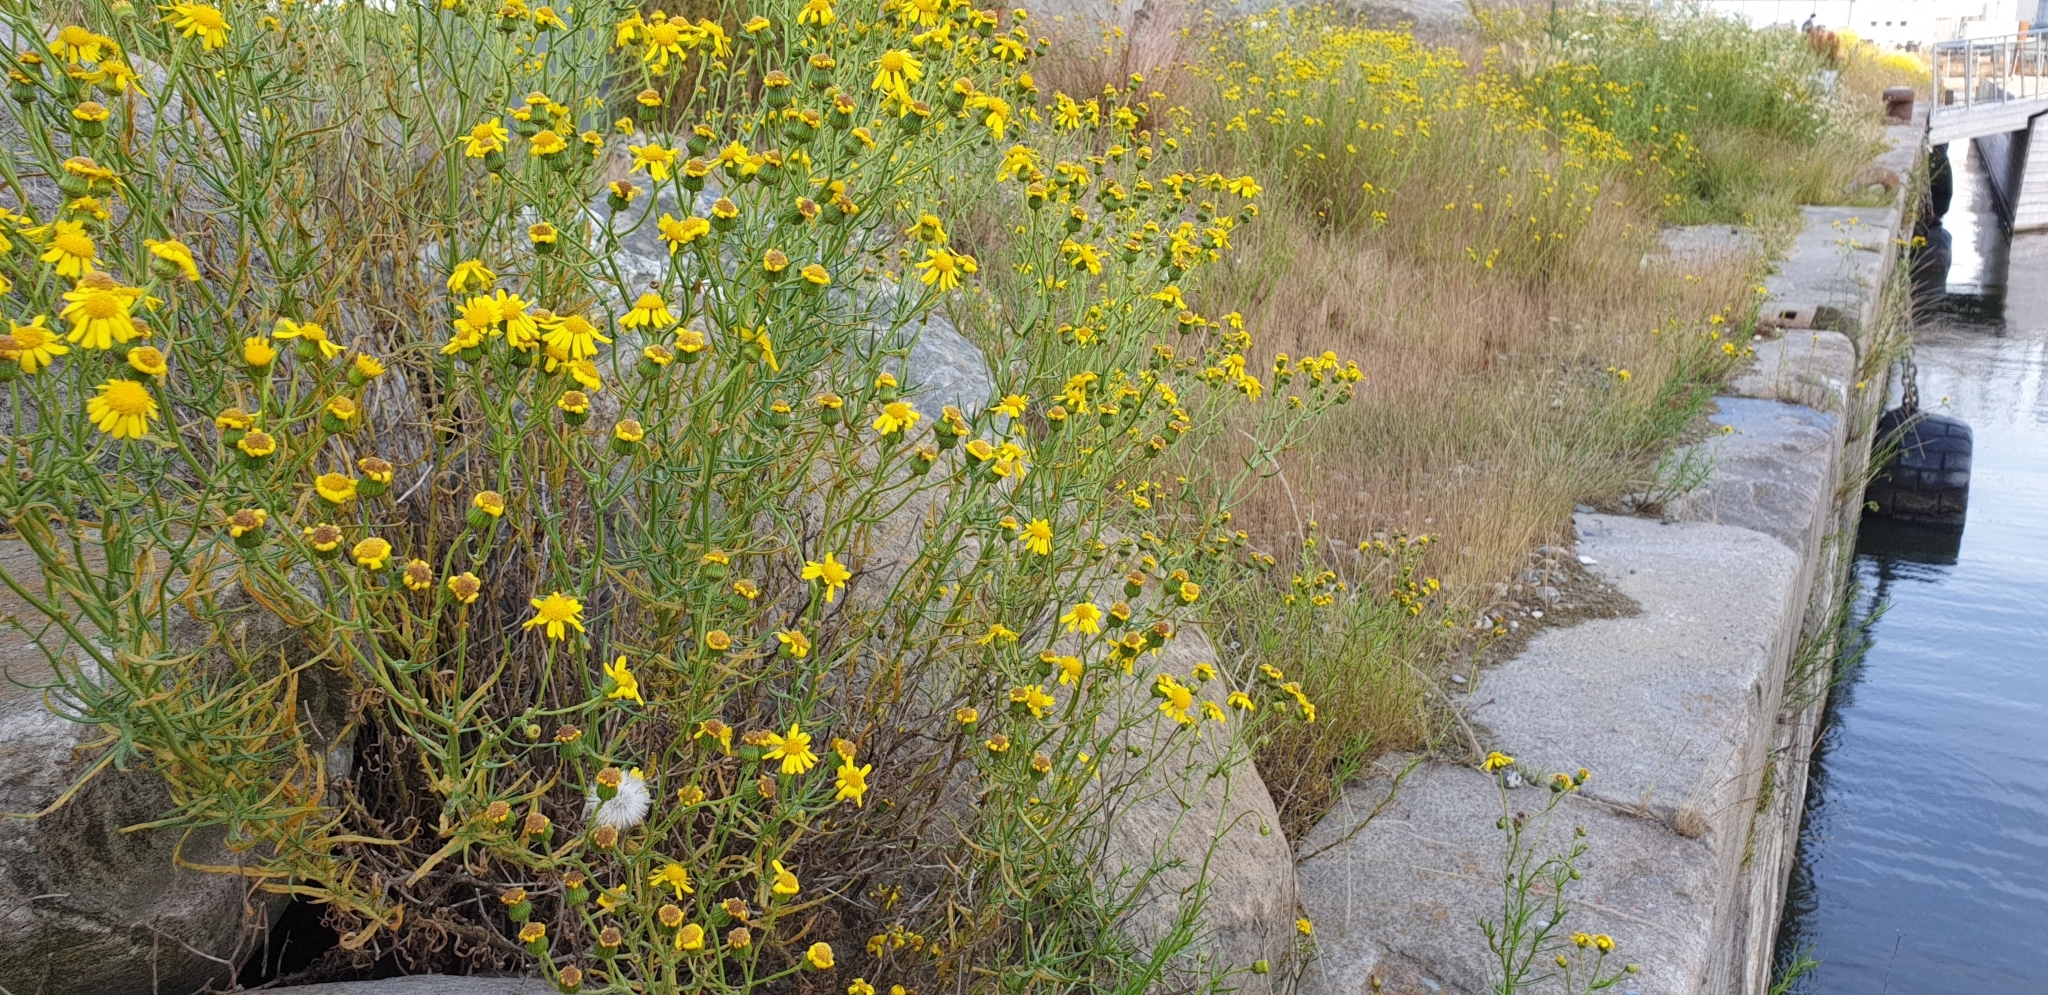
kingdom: Plantae
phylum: Tracheophyta
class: Magnoliopsida
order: Asterales
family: Asteraceae
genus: Senecio
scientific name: Senecio inaequidens
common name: Narrow-leaved ragwort
